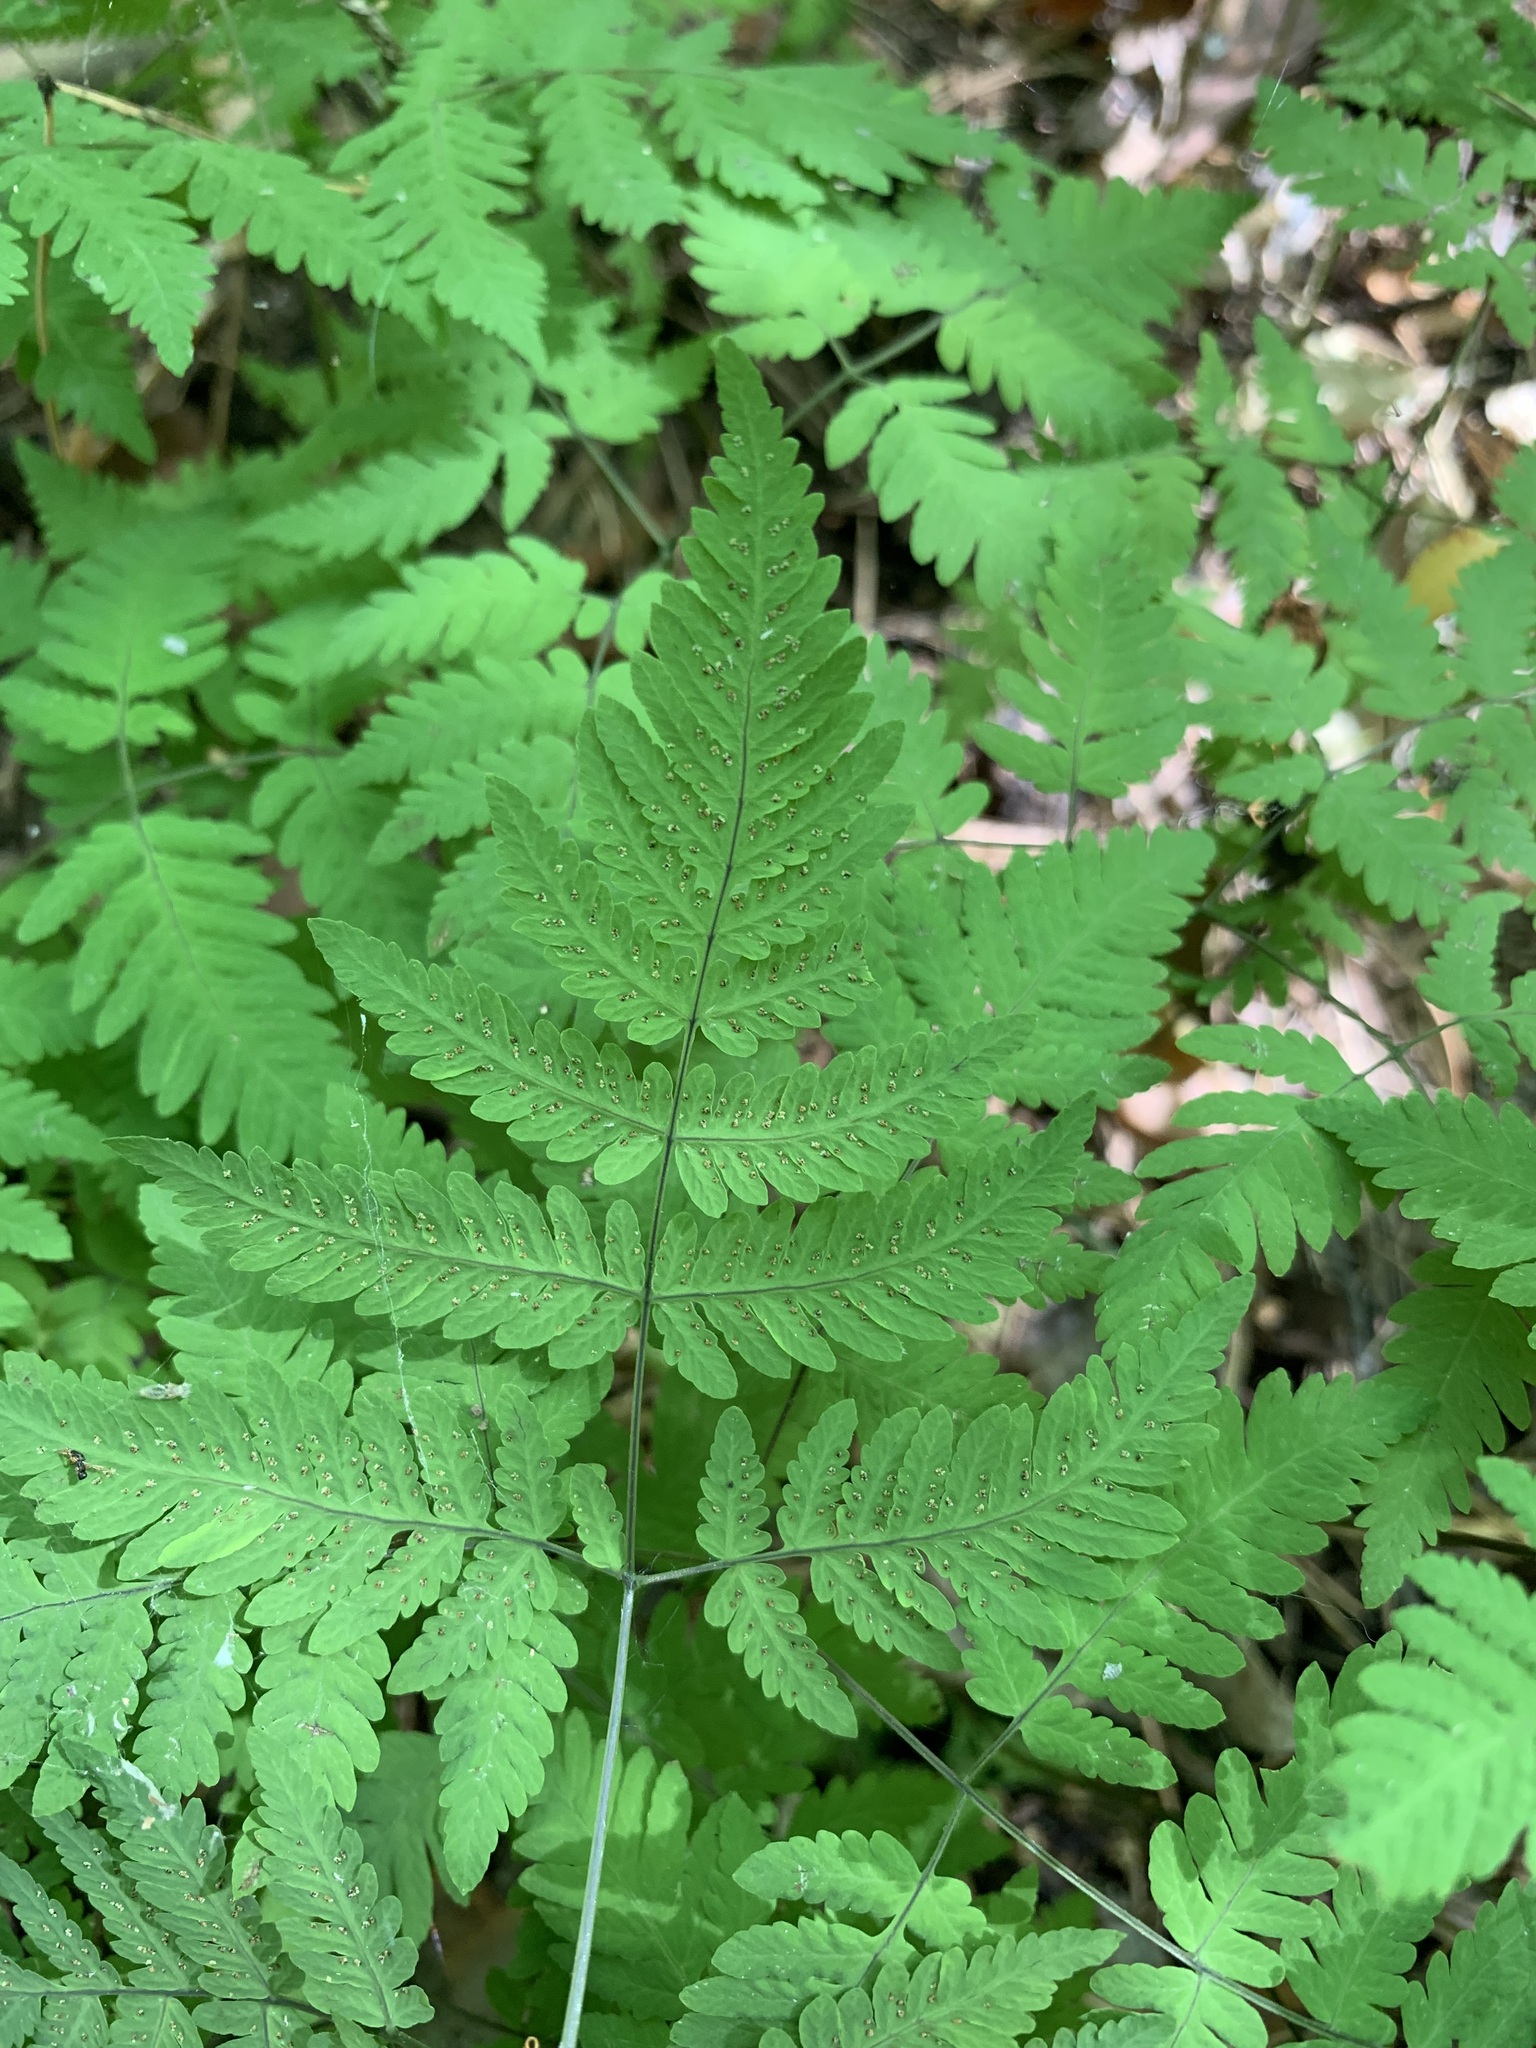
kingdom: Plantae
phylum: Tracheophyta
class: Polypodiopsida
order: Polypodiales
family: Cystopteridaceae
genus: Gymnocarpium
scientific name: Gymnocarpium dryopteris
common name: Oak fern
